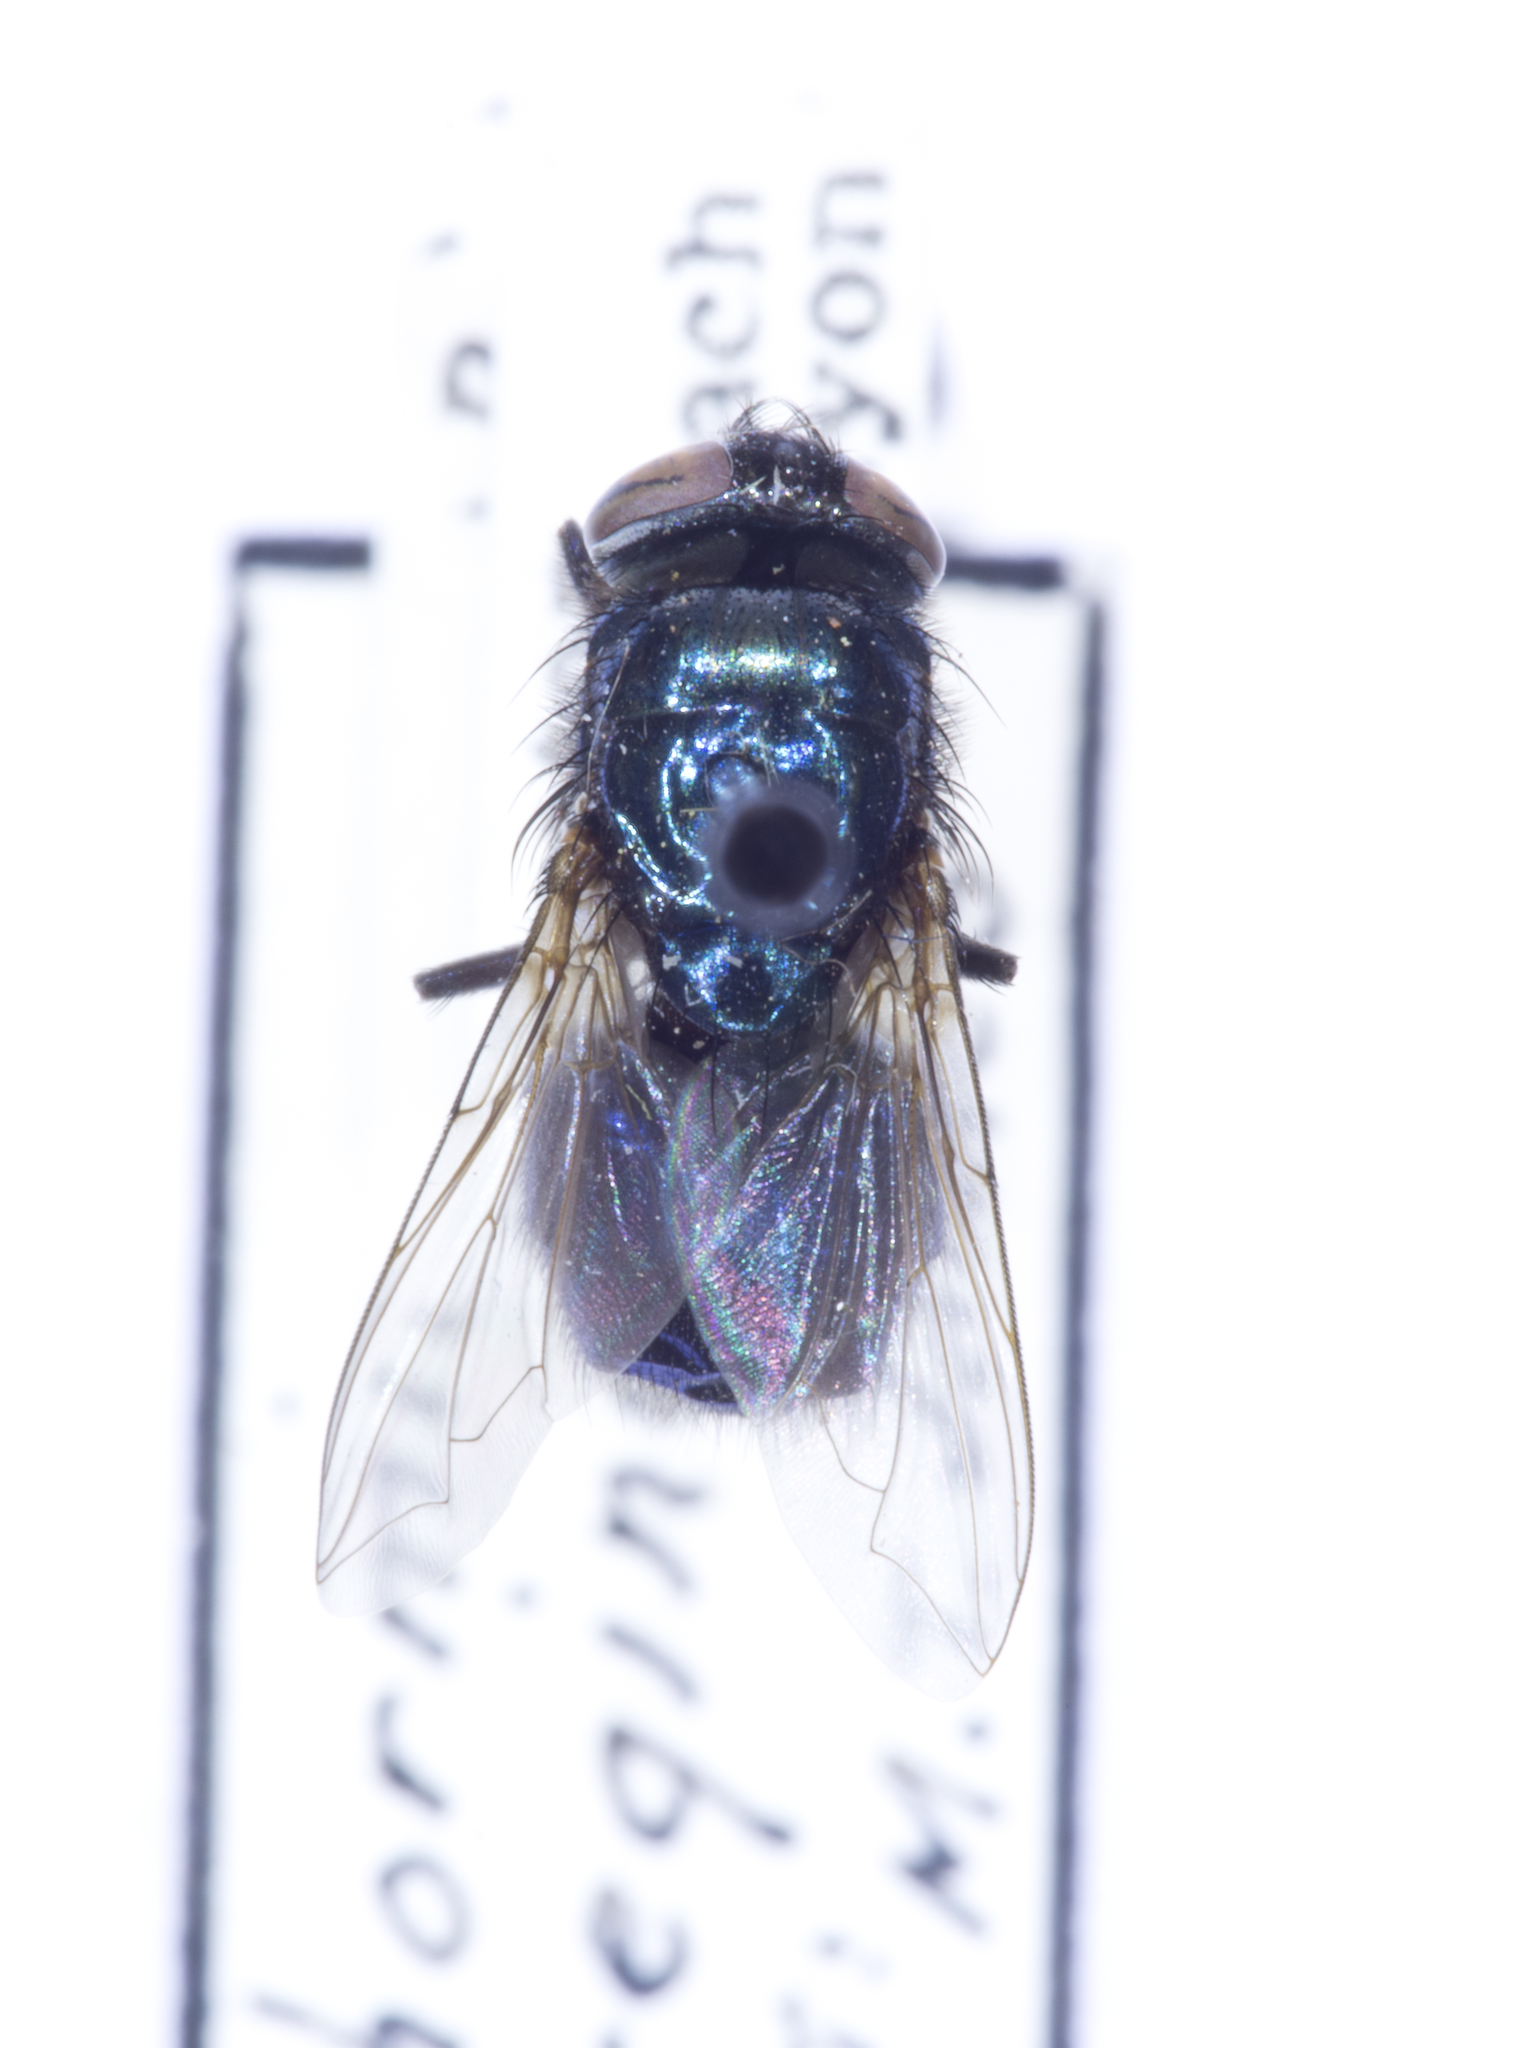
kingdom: Animalia
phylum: Arthropoda
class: Insecta
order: Diptera
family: Calliphoridae
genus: Phormia
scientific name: Phormia regina
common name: Black blow fly
